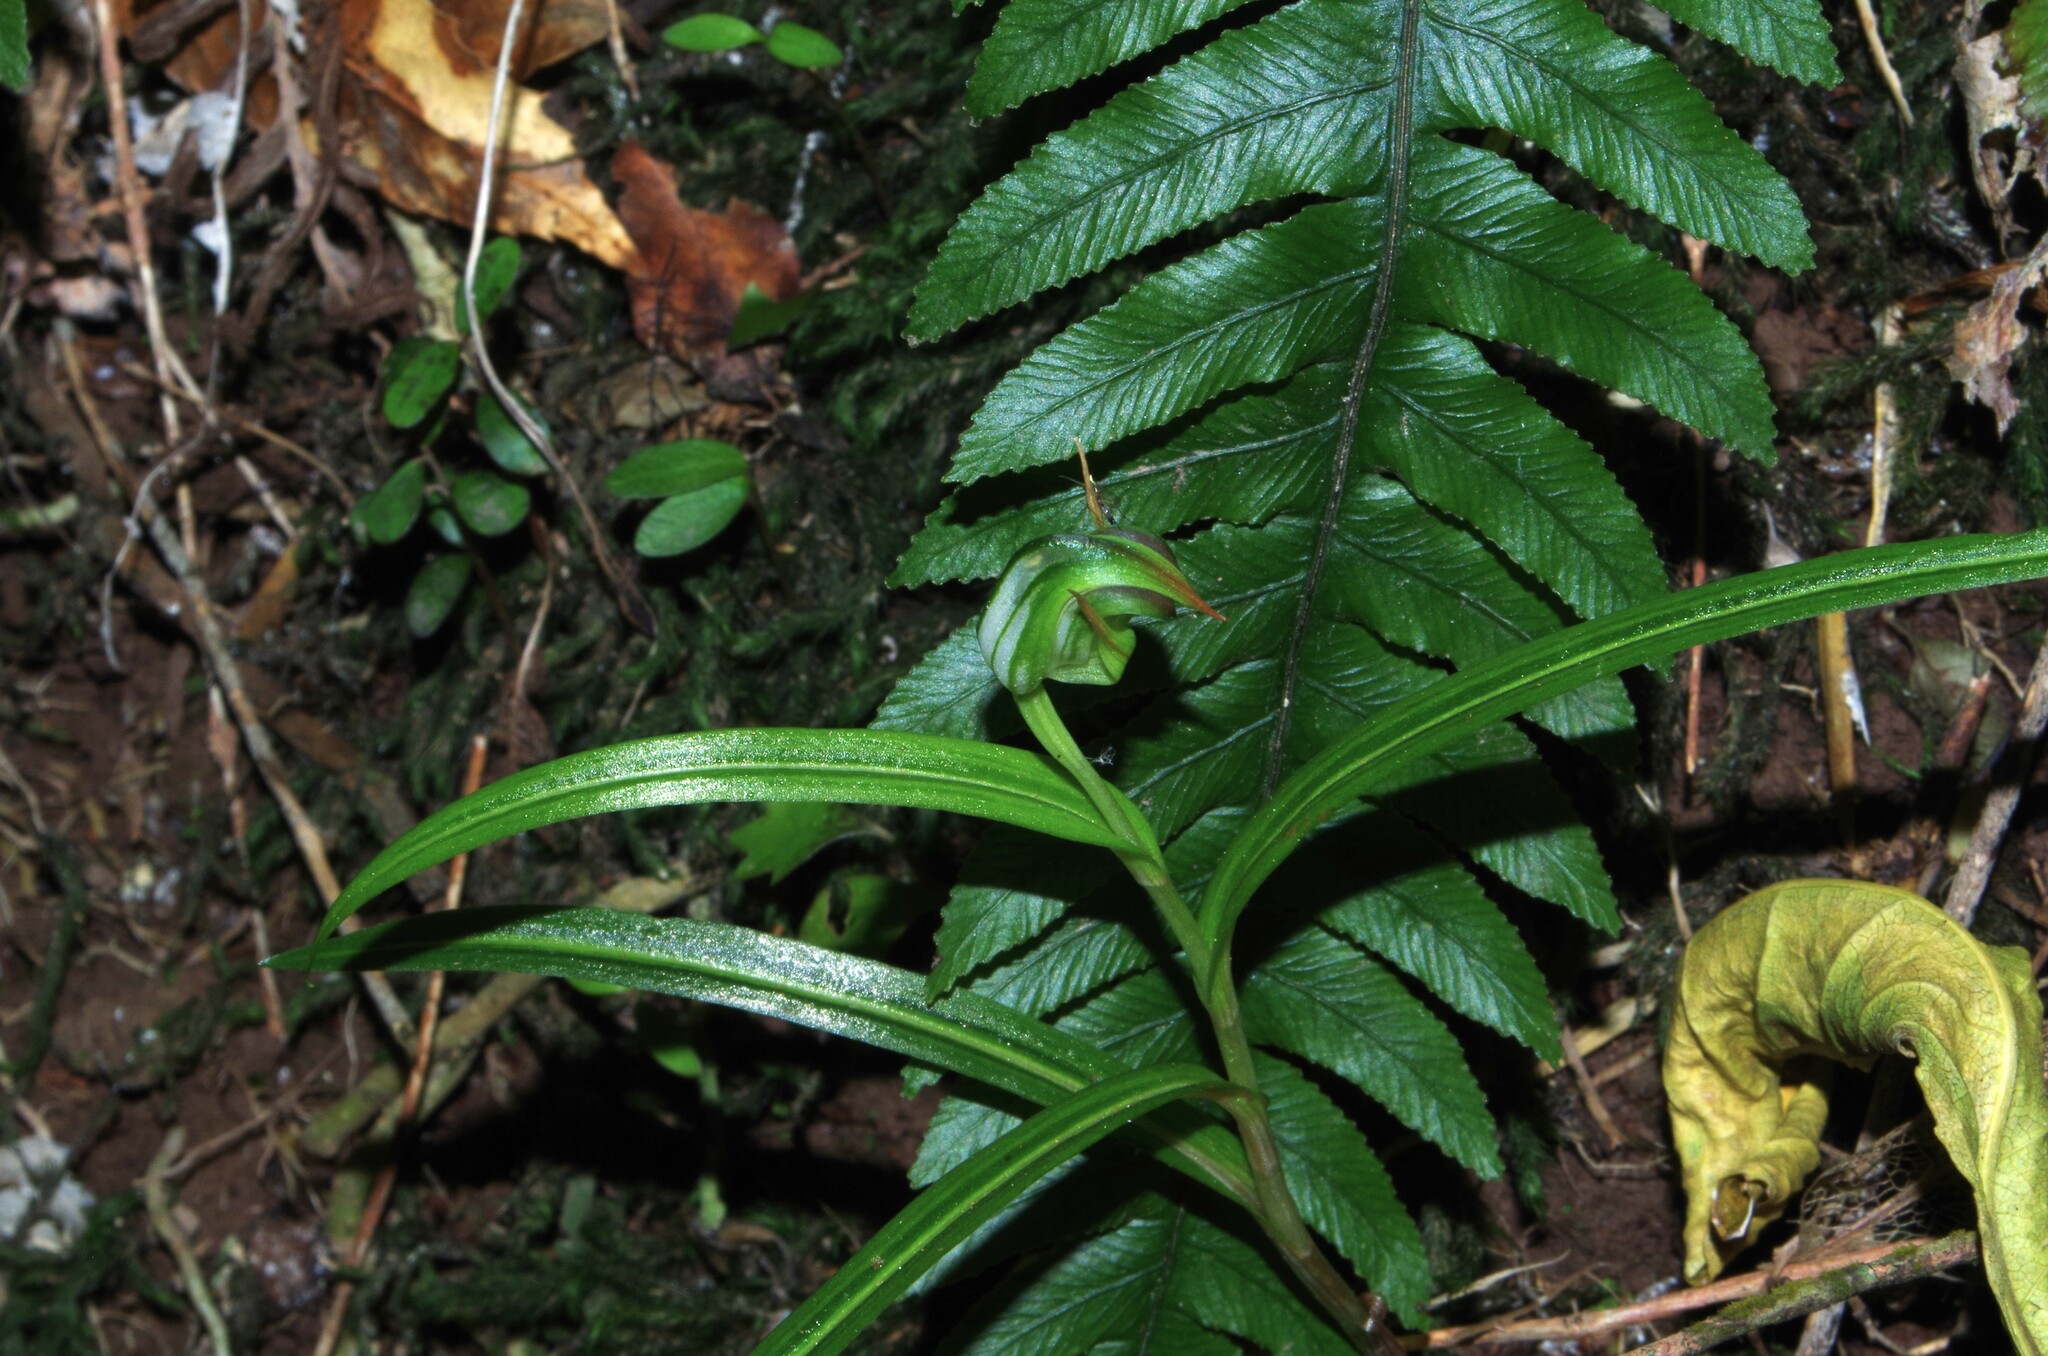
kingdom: Plantae
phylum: Tracheophyta
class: Liliopsida
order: Asparagales
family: Orchidaceae
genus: Pterostylis
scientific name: Pterostylis graminea
